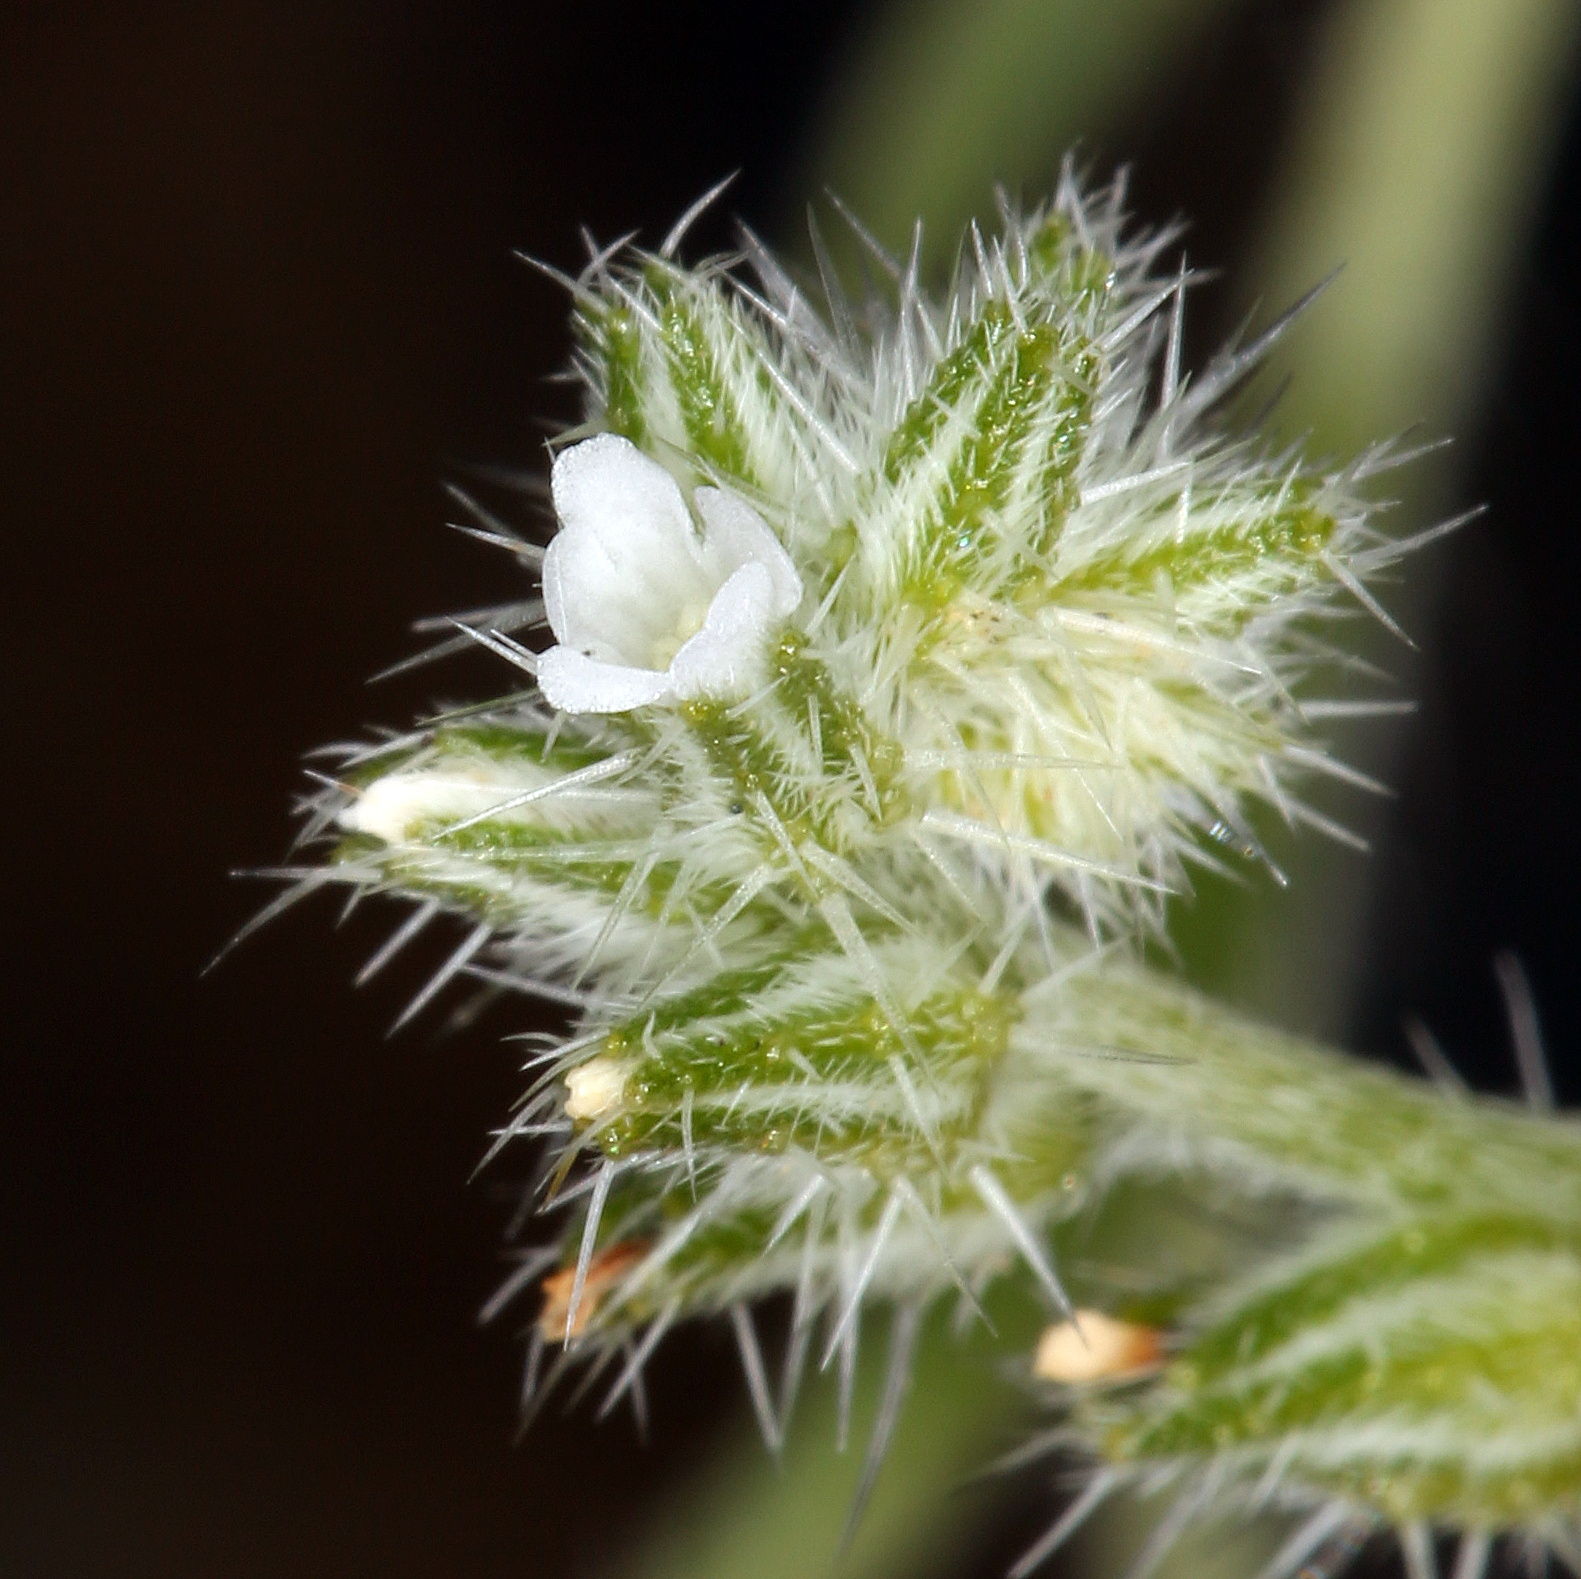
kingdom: Plantae
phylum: Tracheophyta
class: Magnoliopsida
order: Boraginales
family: Boraginaceae
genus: Cryptantha
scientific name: Cryptantha scoparia
